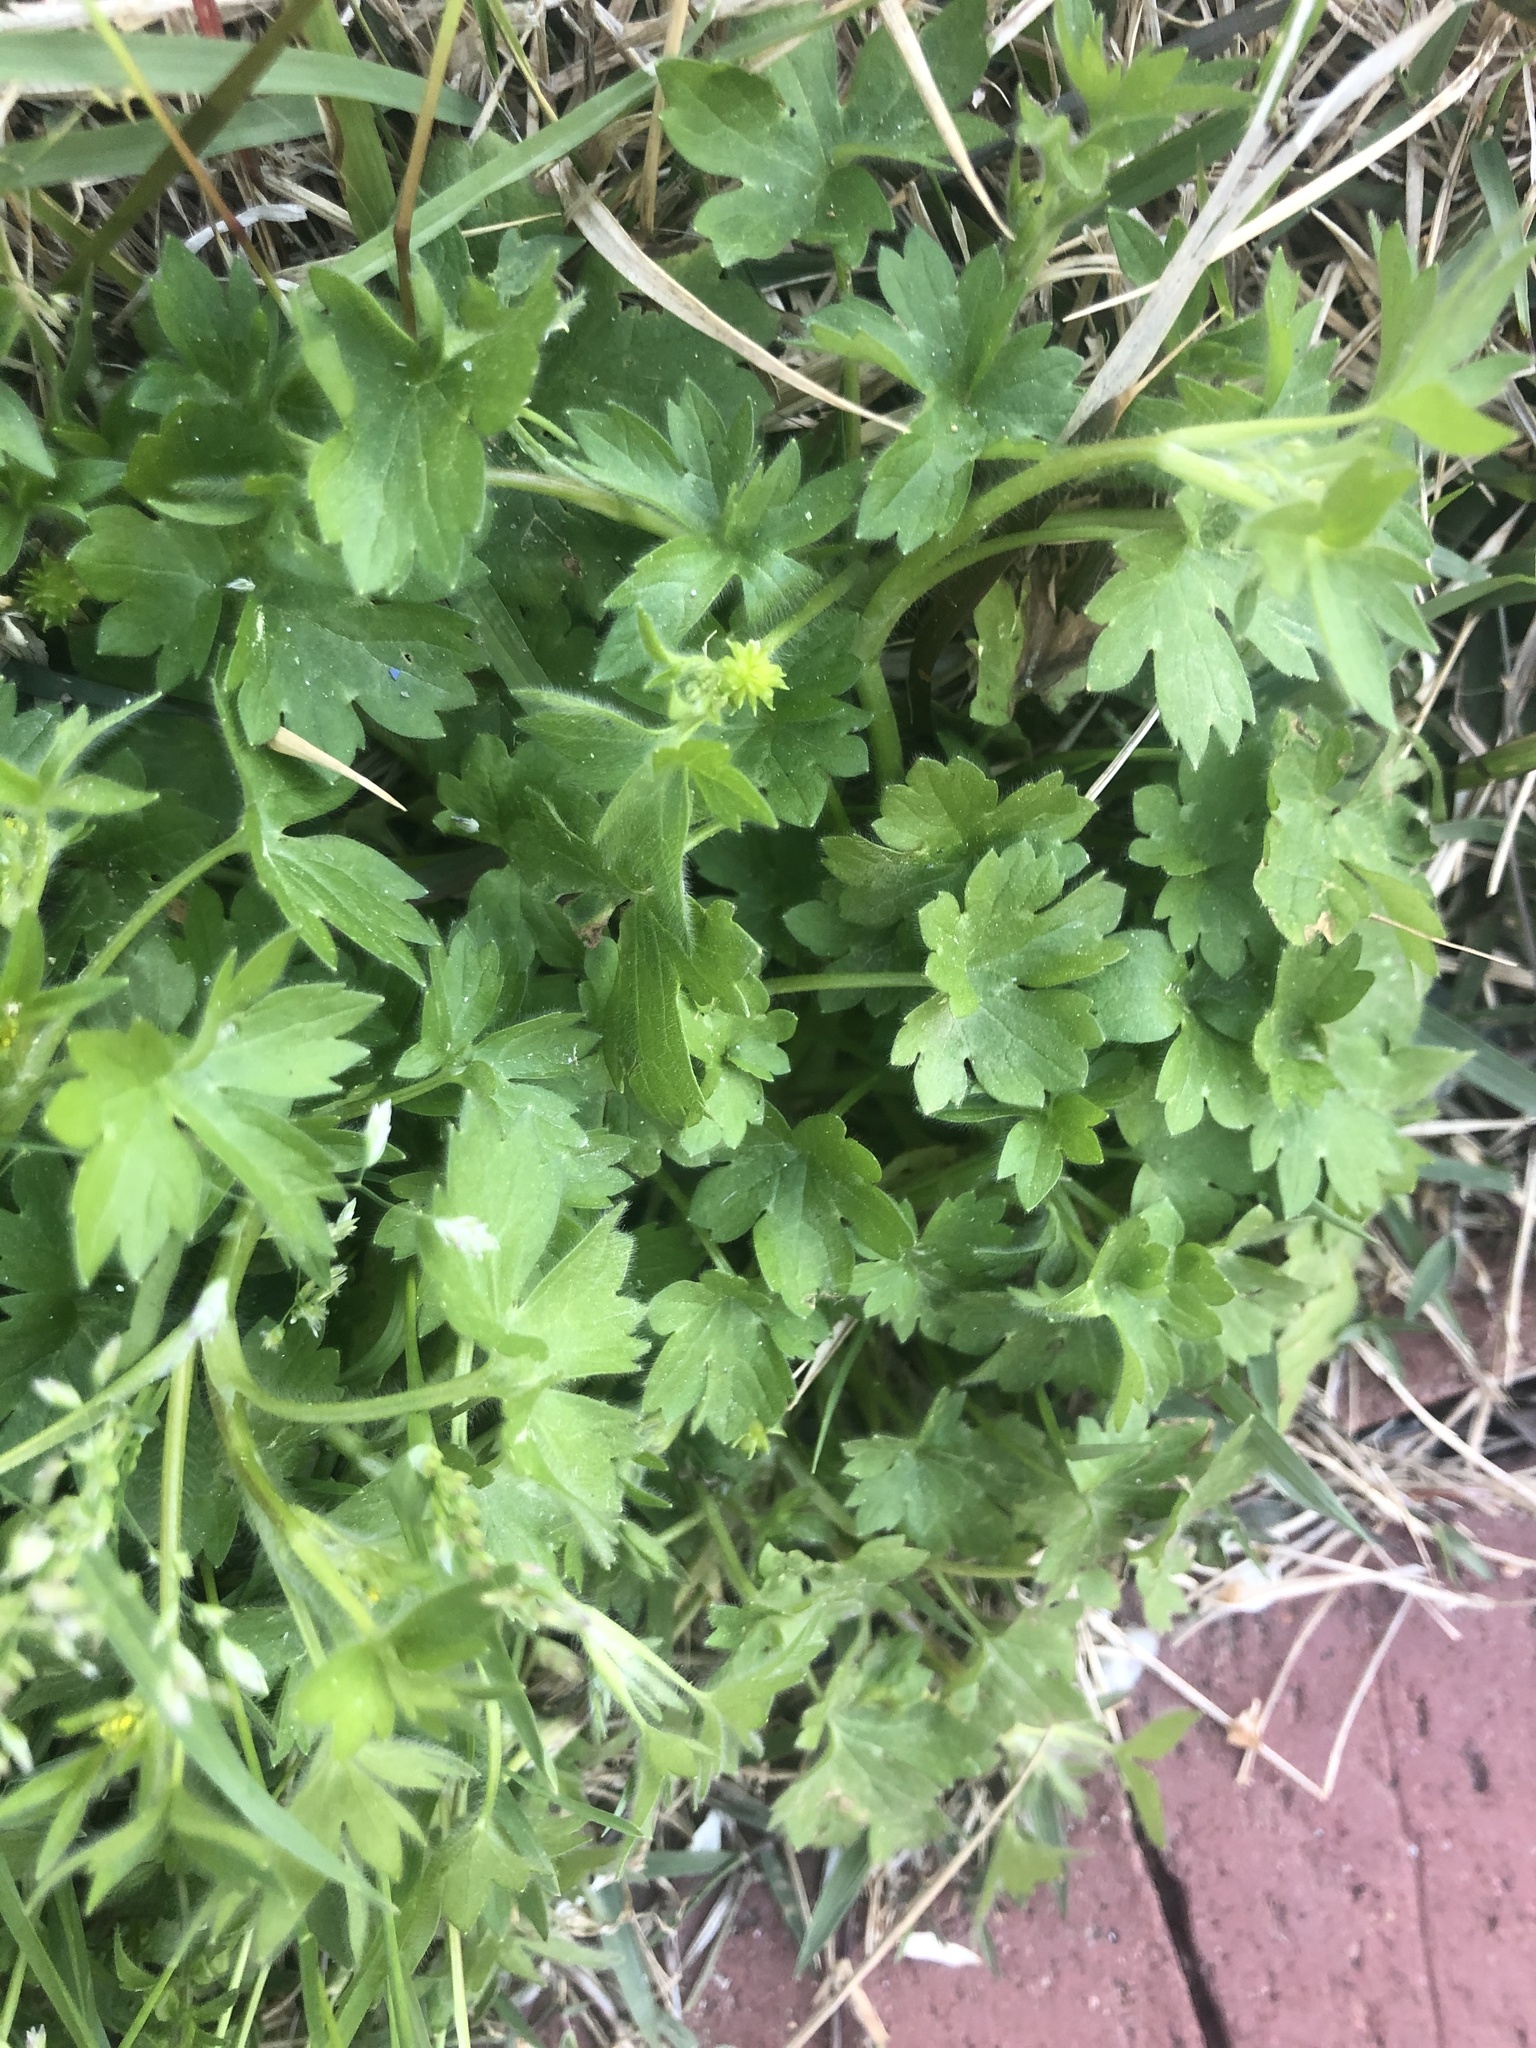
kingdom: Plantae
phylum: Tracheophyta
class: Magnoliopsida
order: Ranunculales
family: Ranunculaceae
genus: Ranunculus
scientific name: Ranunculus parviflorus
